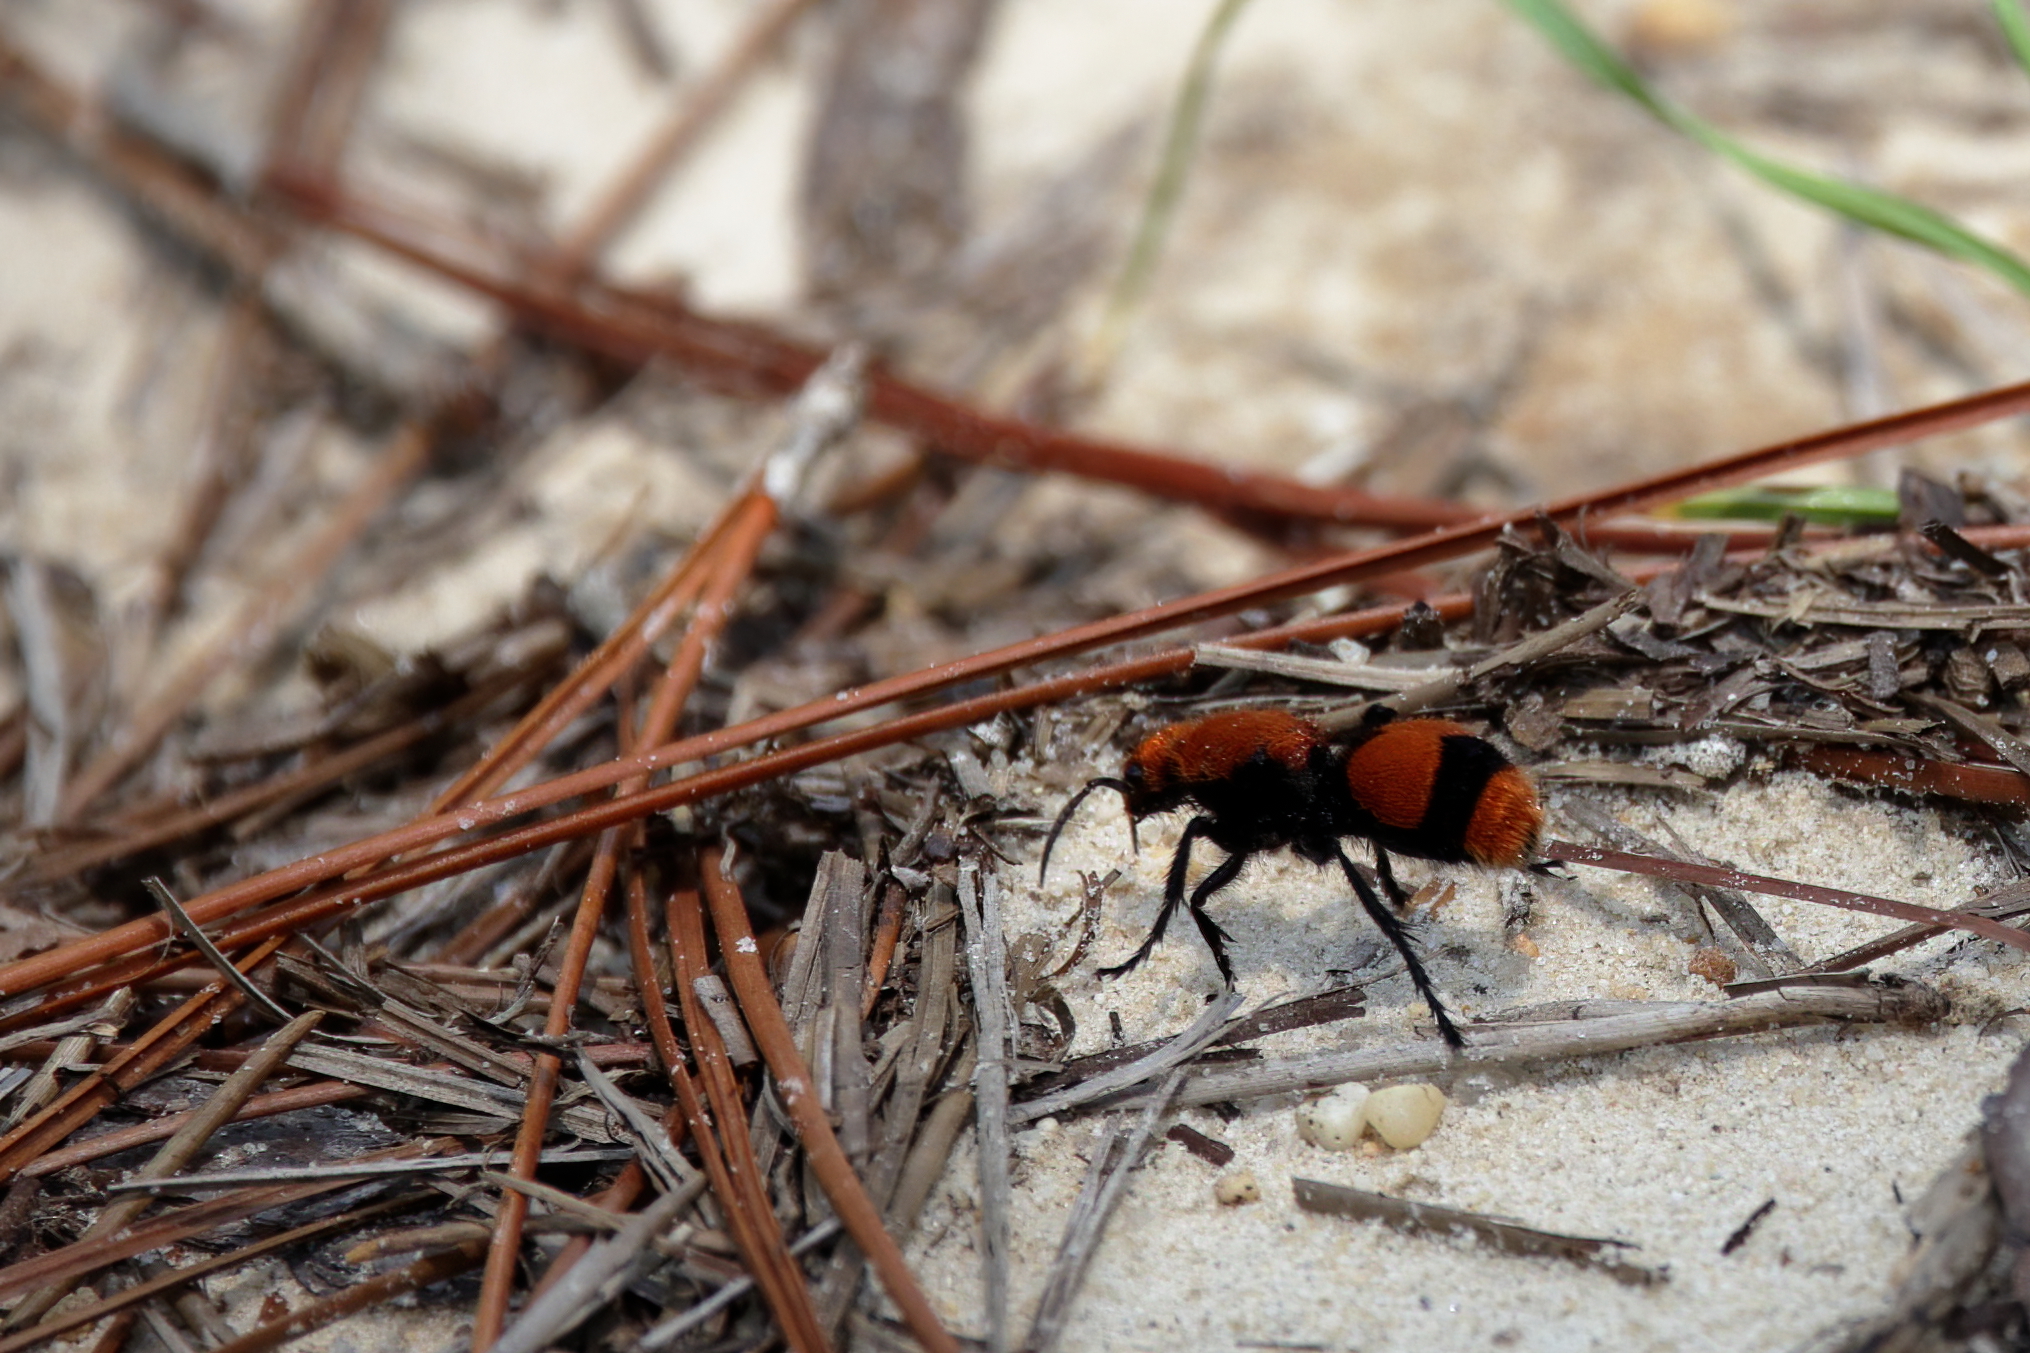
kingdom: Animalia
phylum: Arthropoda
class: Insecta
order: Hymenoptera
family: Mutillidae
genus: Dasymutilla
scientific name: Dasymutilla occidentalis
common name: Common eastern velvet ant
